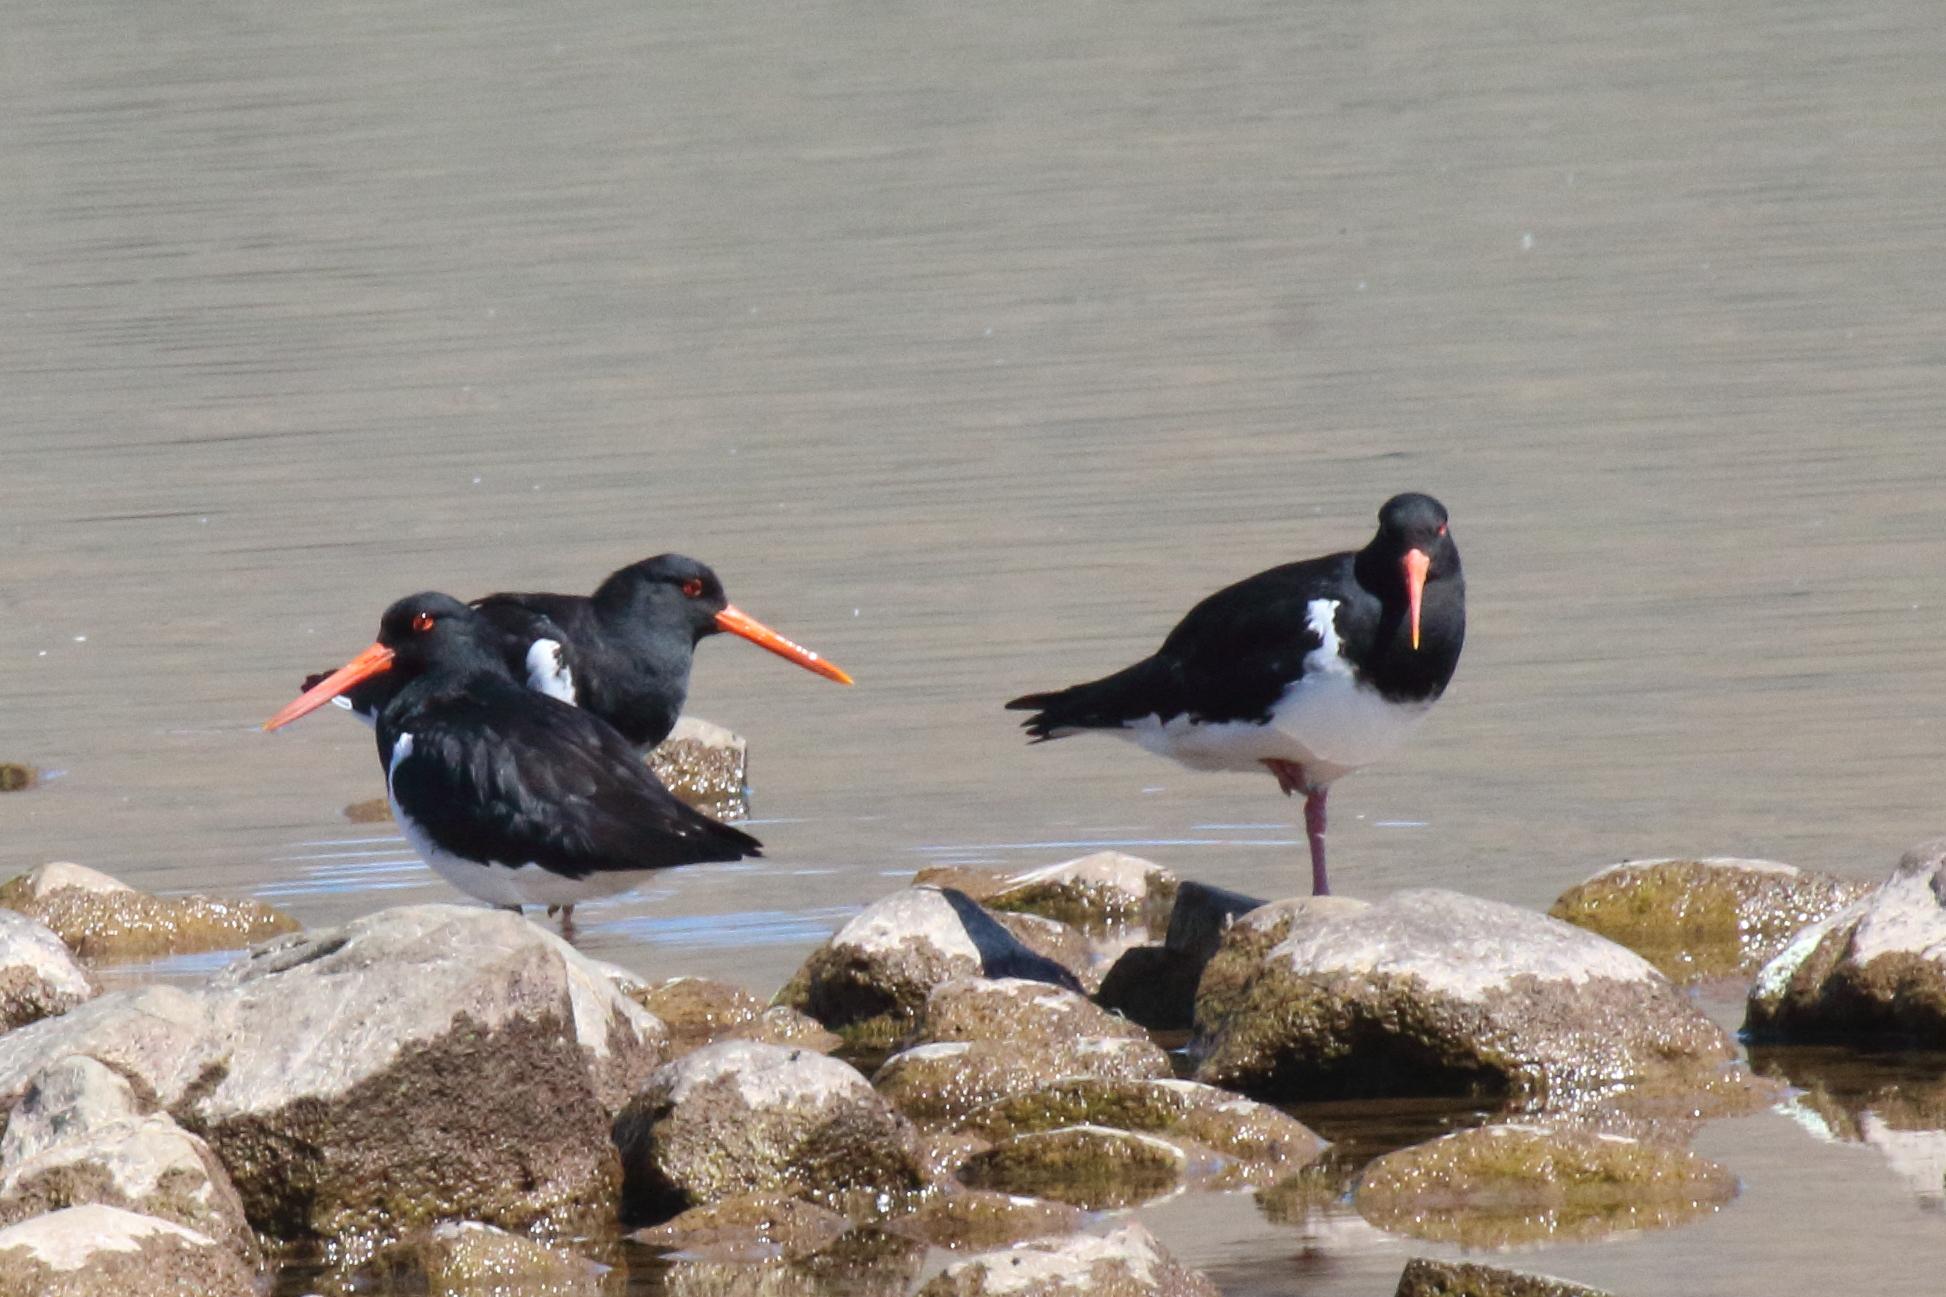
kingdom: Animalia
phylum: Chordata
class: Aves
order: Charadriiformes
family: Haematopodidae
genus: Haematopus
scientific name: Haematopus finschi
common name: South island oystercatcher
